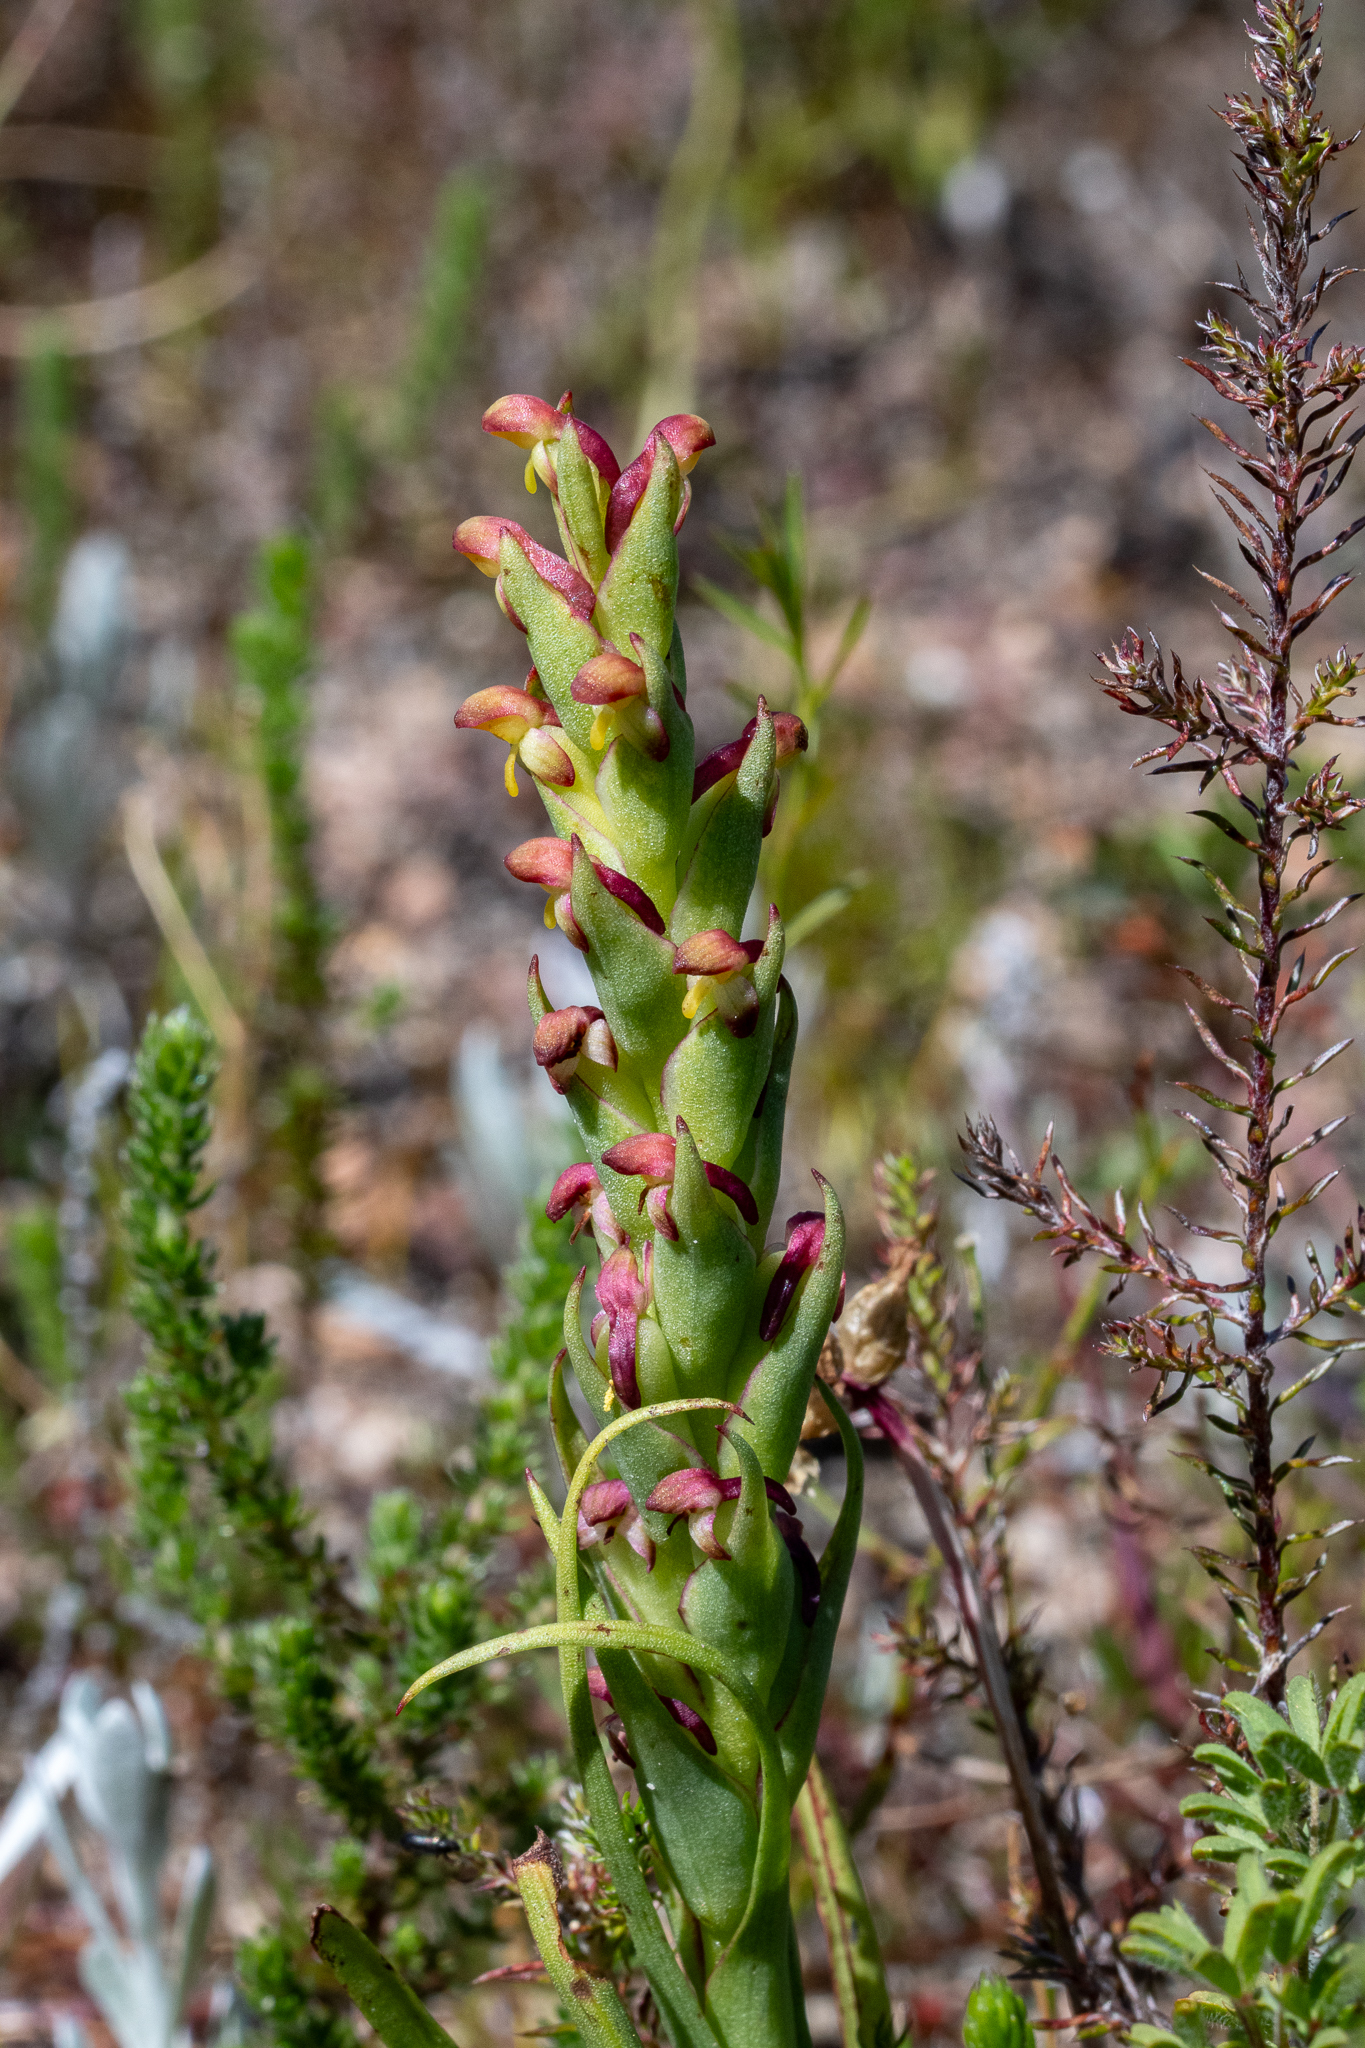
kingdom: Plantae
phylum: Tracheophyta
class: Liliopsida
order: Asparagales
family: Orchidaceae
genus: Disa
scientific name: Disa bracteata
